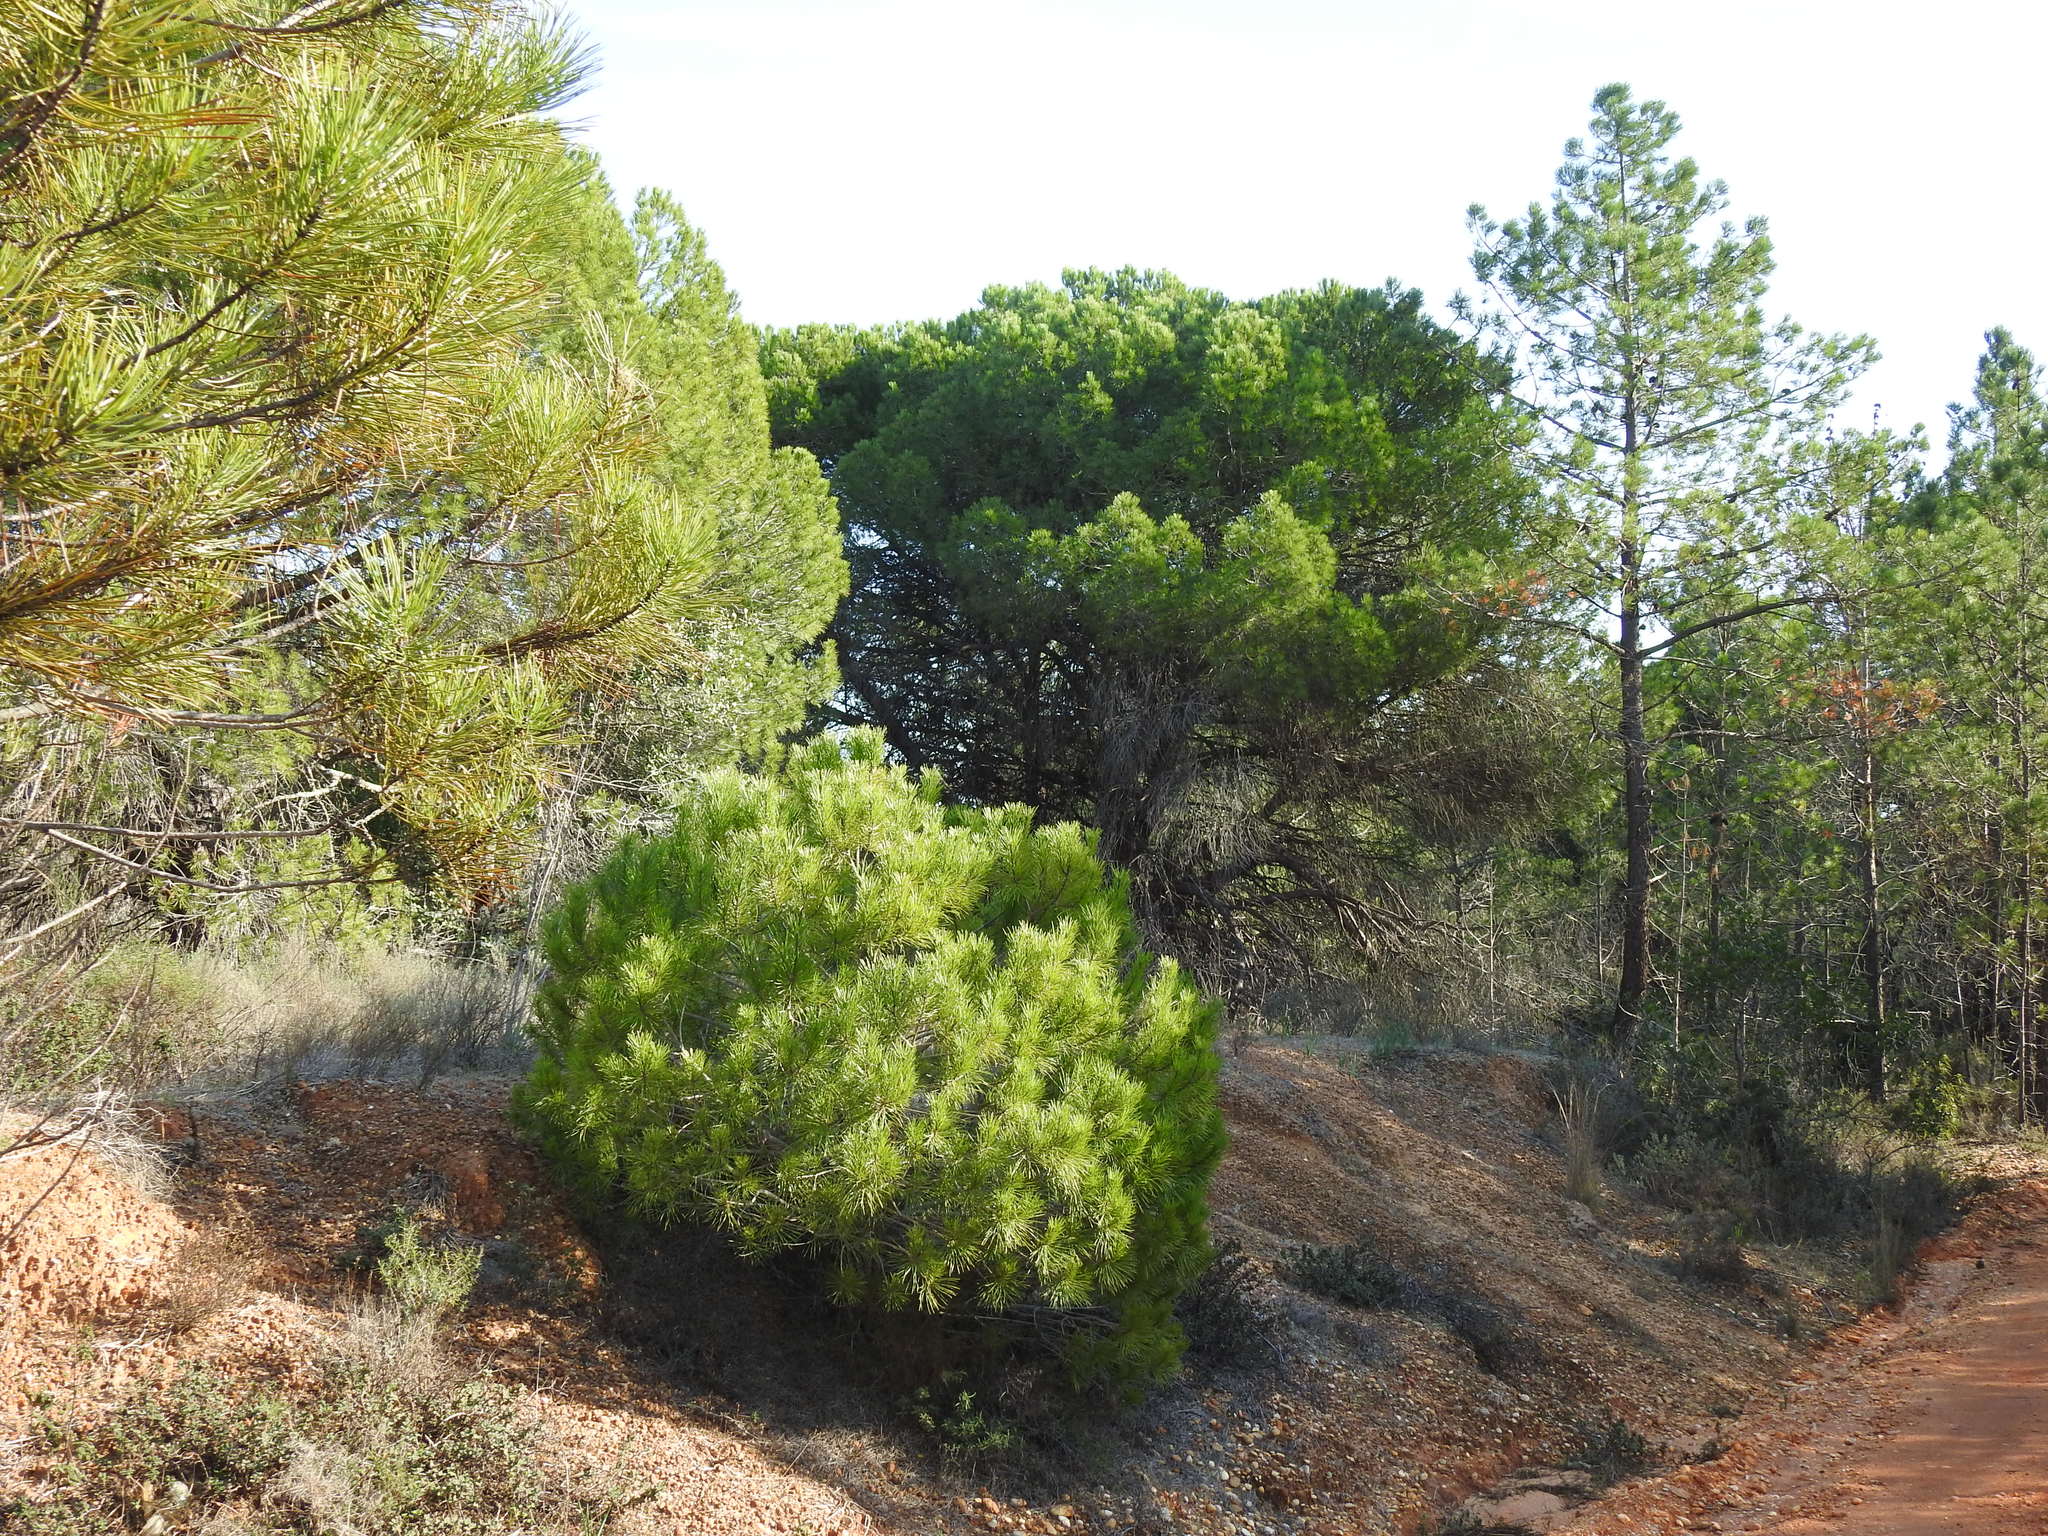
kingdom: Plantae
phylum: Tracheophyta
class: Pinopsida
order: Pinales
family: Pinaceae
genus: Pinus
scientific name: Pinus pinea
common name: Italian stone pine
